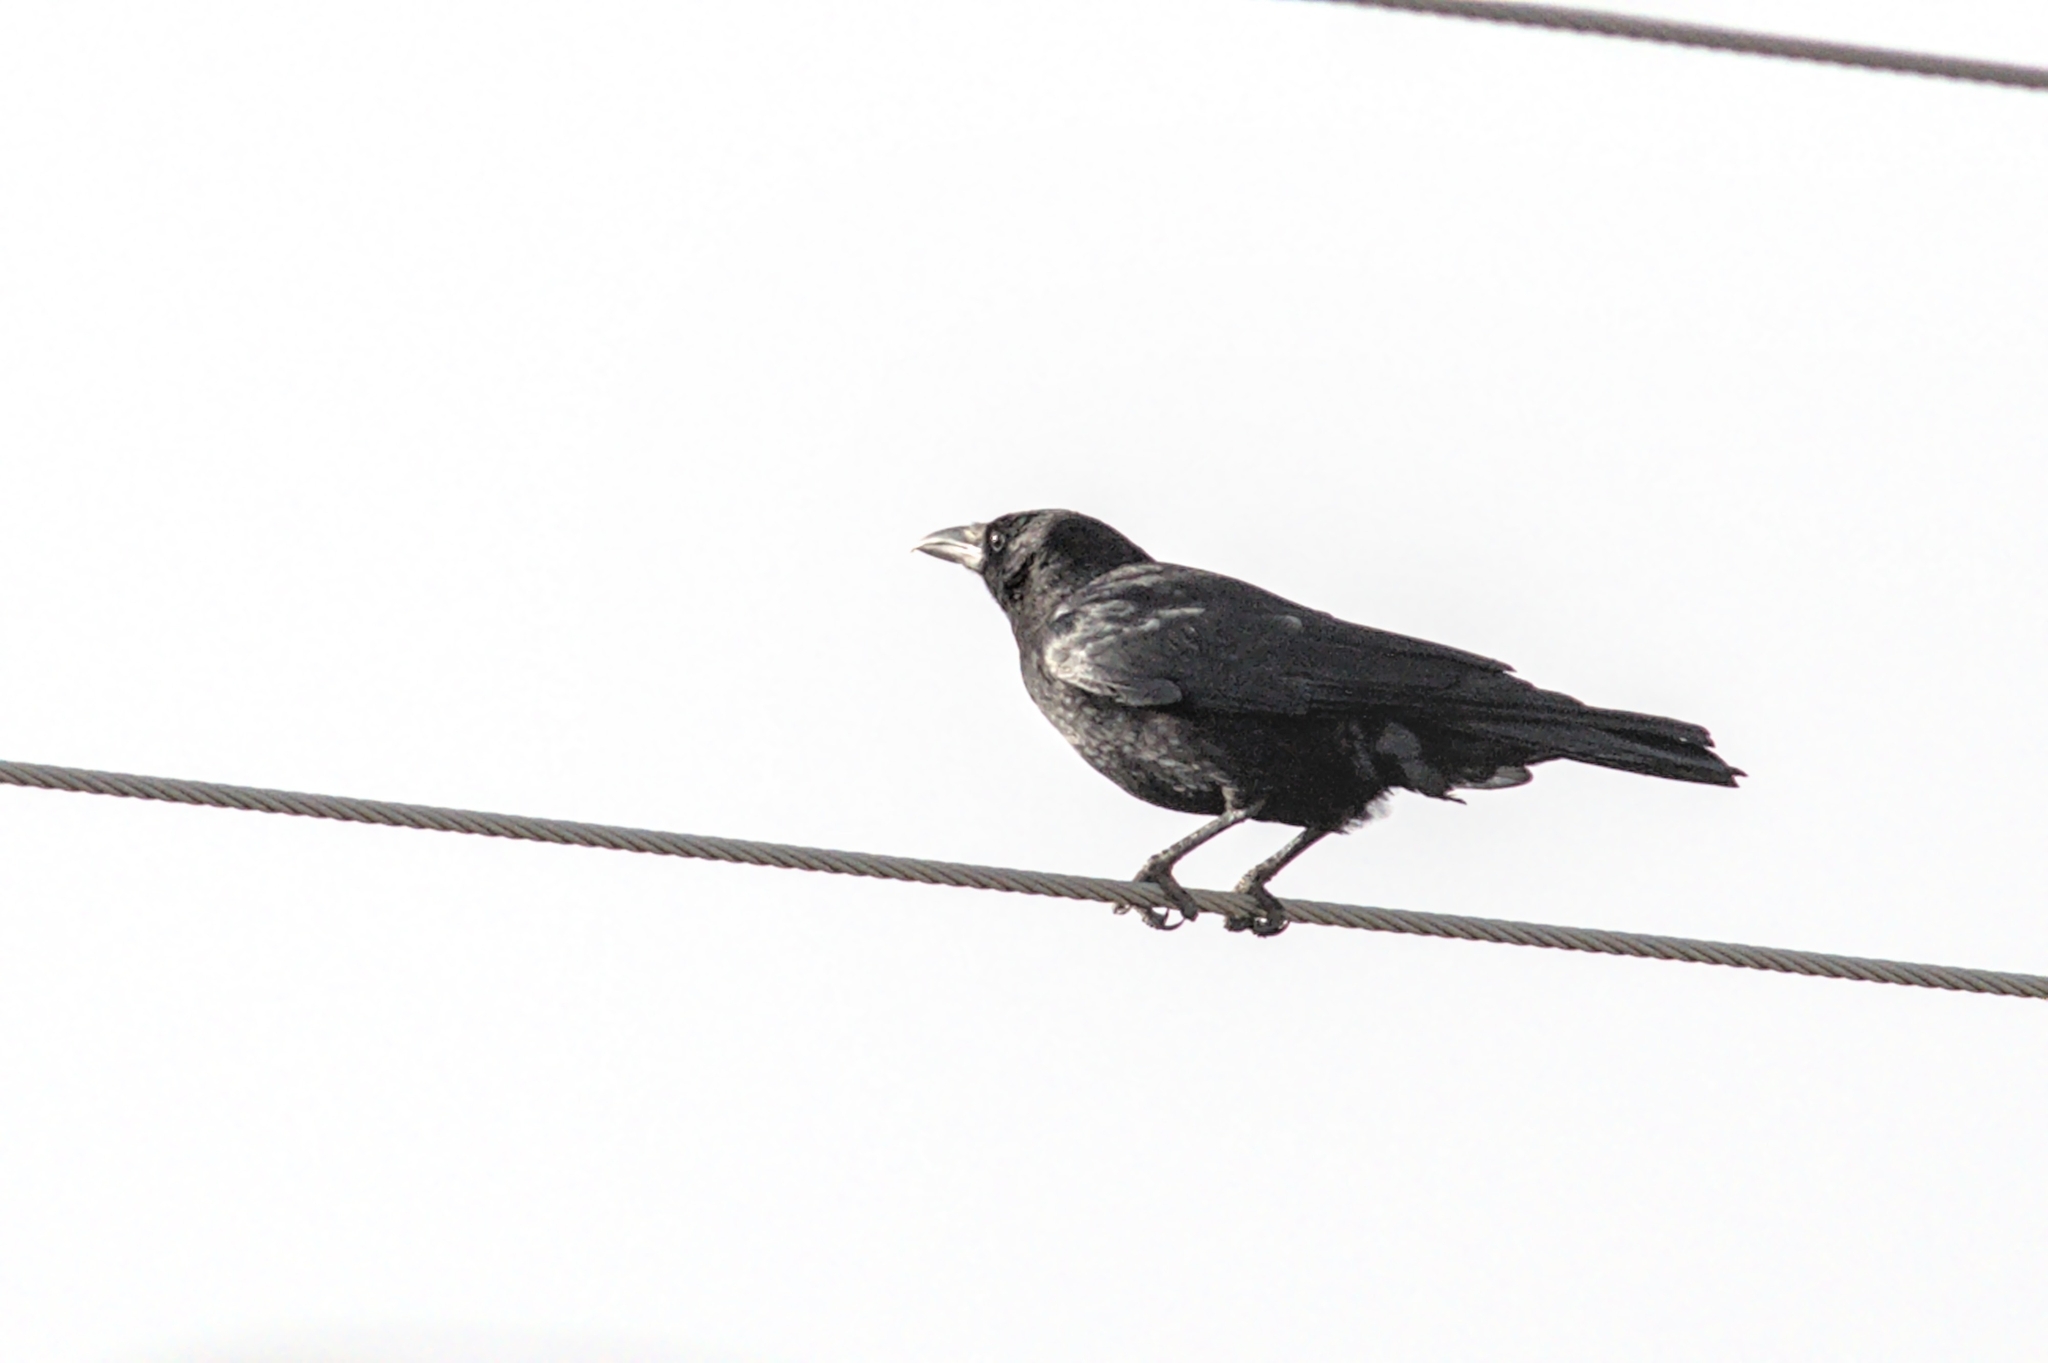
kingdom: Animalia
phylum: Chordata
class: Aves
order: Passeriformes
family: Corvidae
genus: Corvus
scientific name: Corvus corone
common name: Carrion crow
